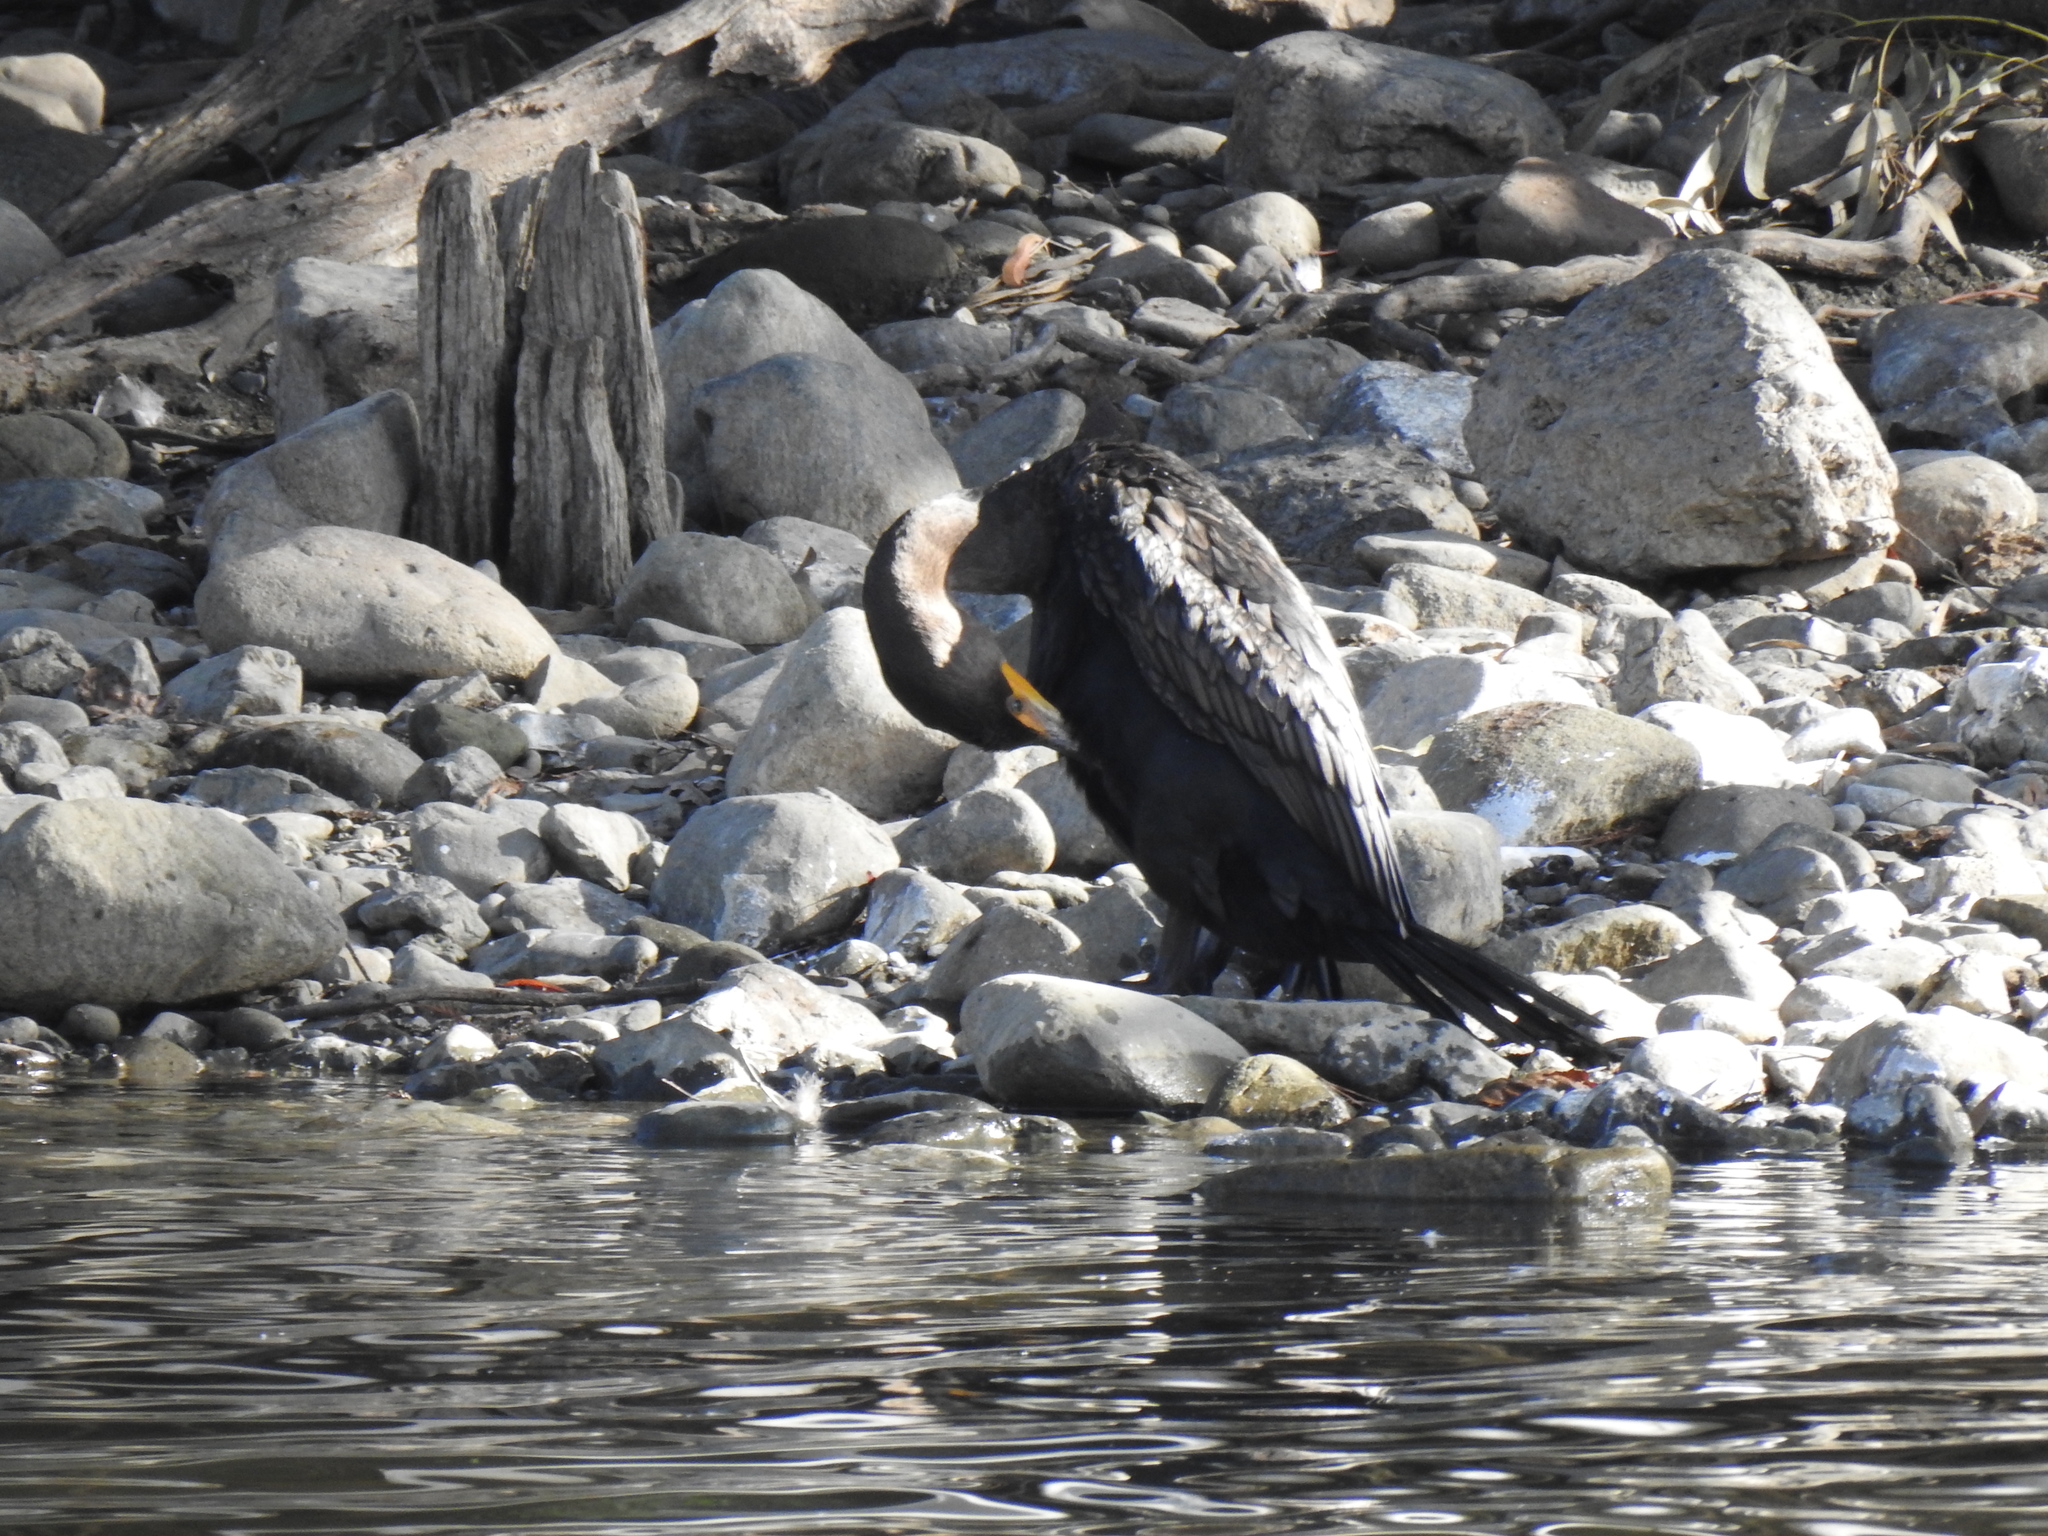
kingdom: Animalia
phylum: Chordata
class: Aves
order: Suliformes
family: Phalacrocoracidae
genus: Phalacrocorax
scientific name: Phalacrocorax auritus
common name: Double-crested cormorant
